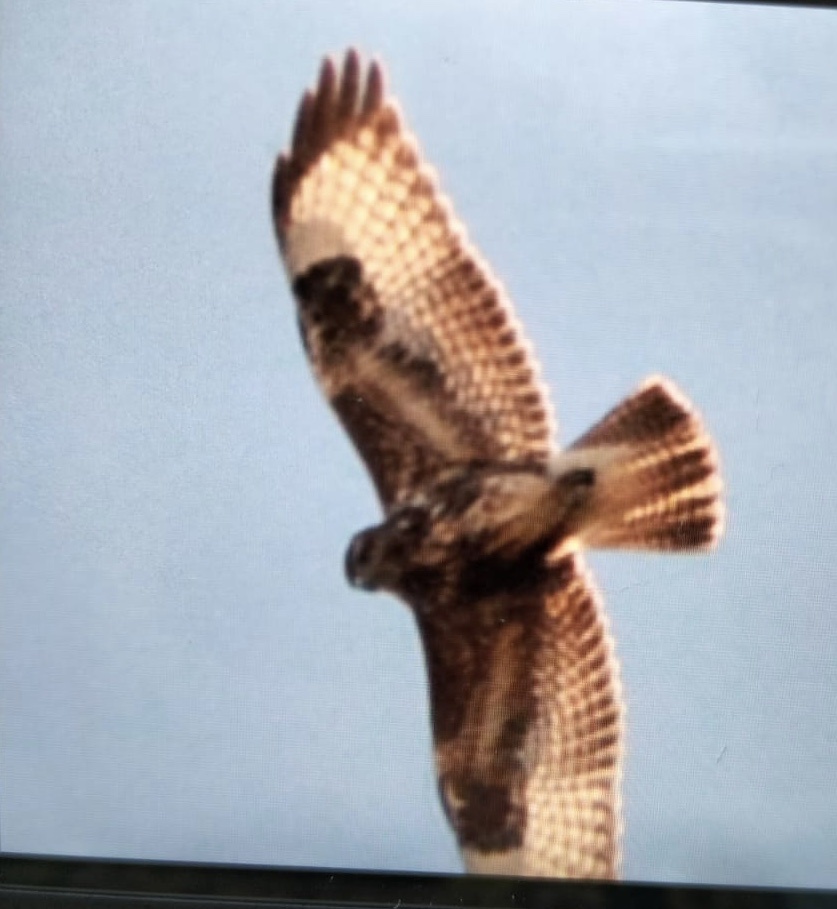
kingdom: Animalia
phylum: Chordata
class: Aves
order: Accipitriformes
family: Accipitridae
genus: Buteo
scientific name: Buteo buteo
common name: Common buzzard
